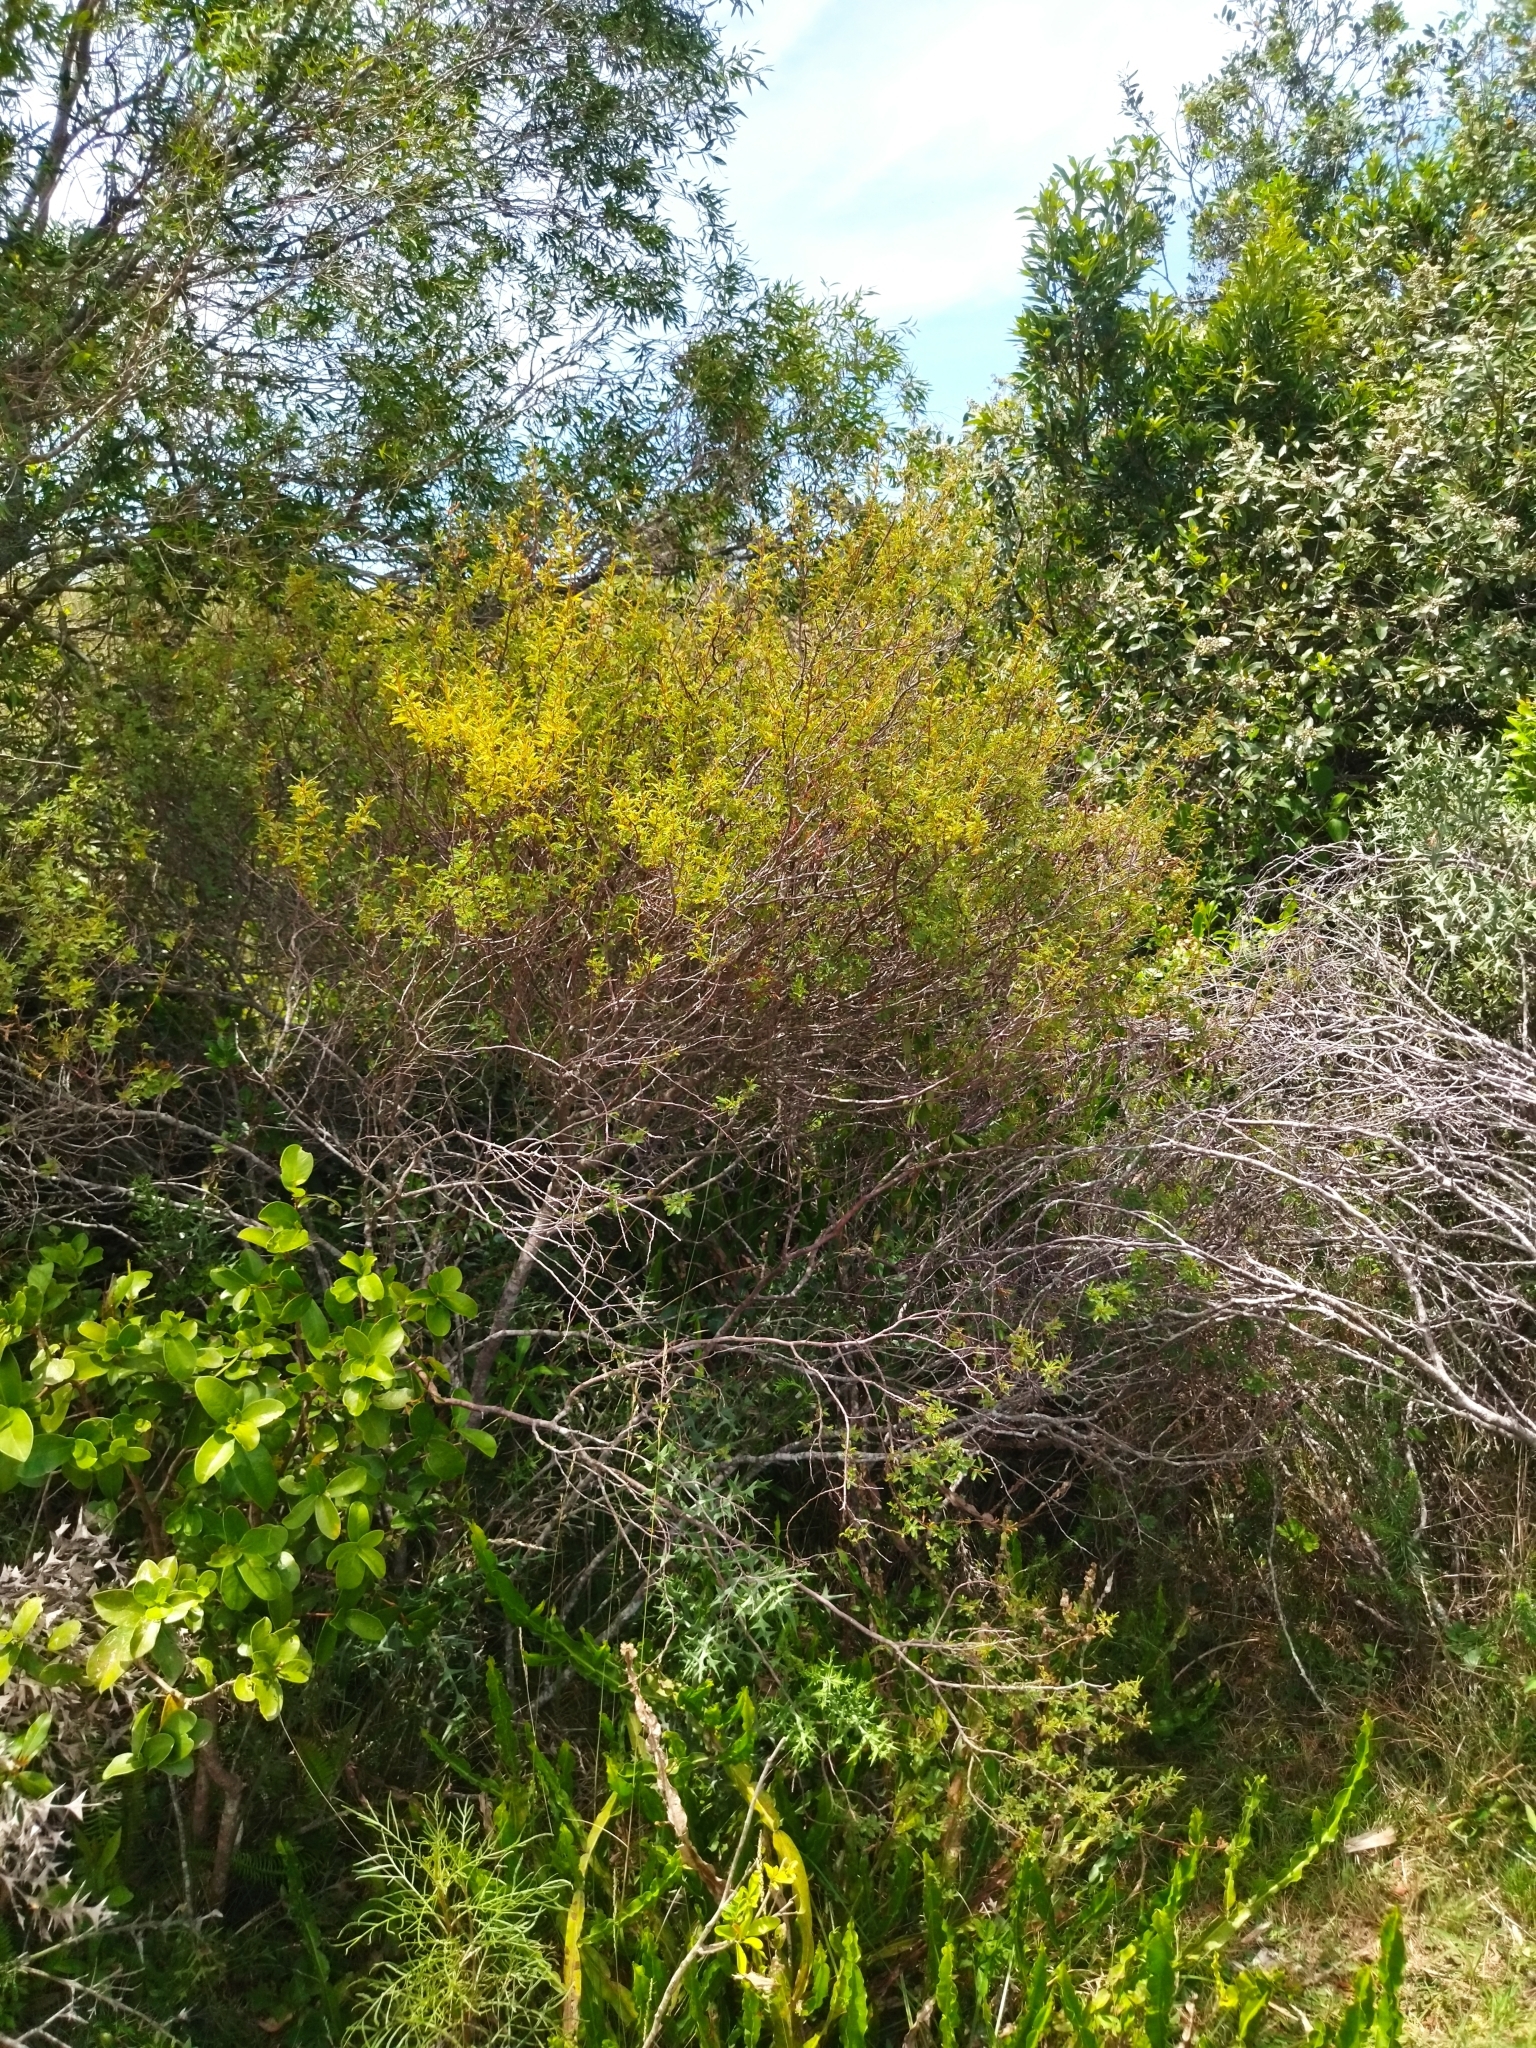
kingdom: Plantae
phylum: Tracheophyta
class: Magnoliopsida
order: Fabales
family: Fabaceae
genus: Mimosa
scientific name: Mimosa ramulosa
